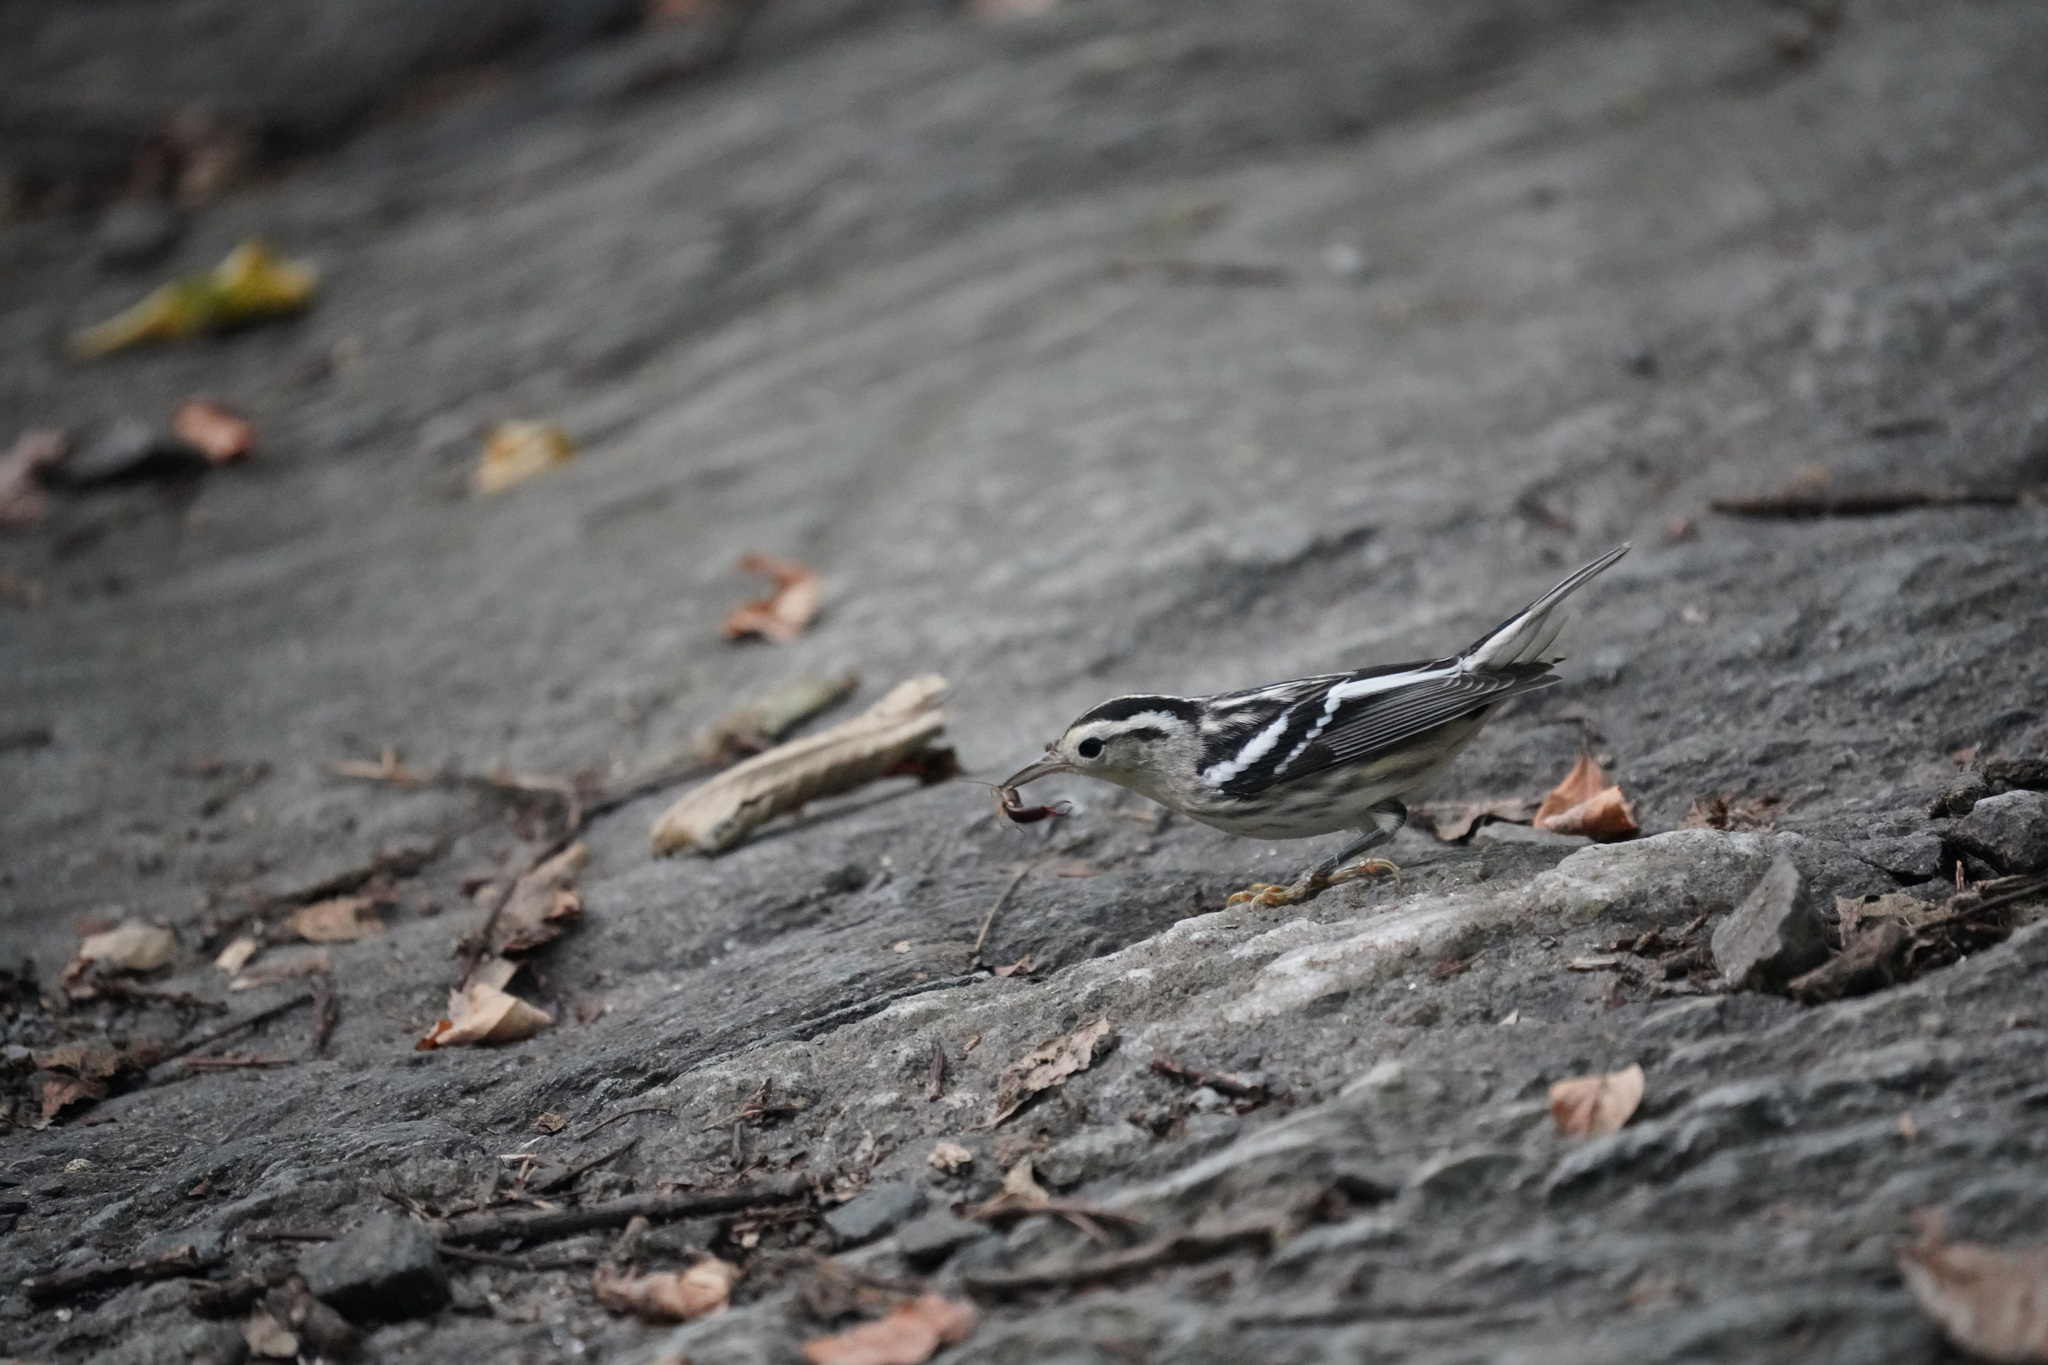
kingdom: Animalia
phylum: Chordata
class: Aves
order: Passeriformes
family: Parulidae
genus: Mniotilta
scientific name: Mniotilta varia
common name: Black-and-white warbler
